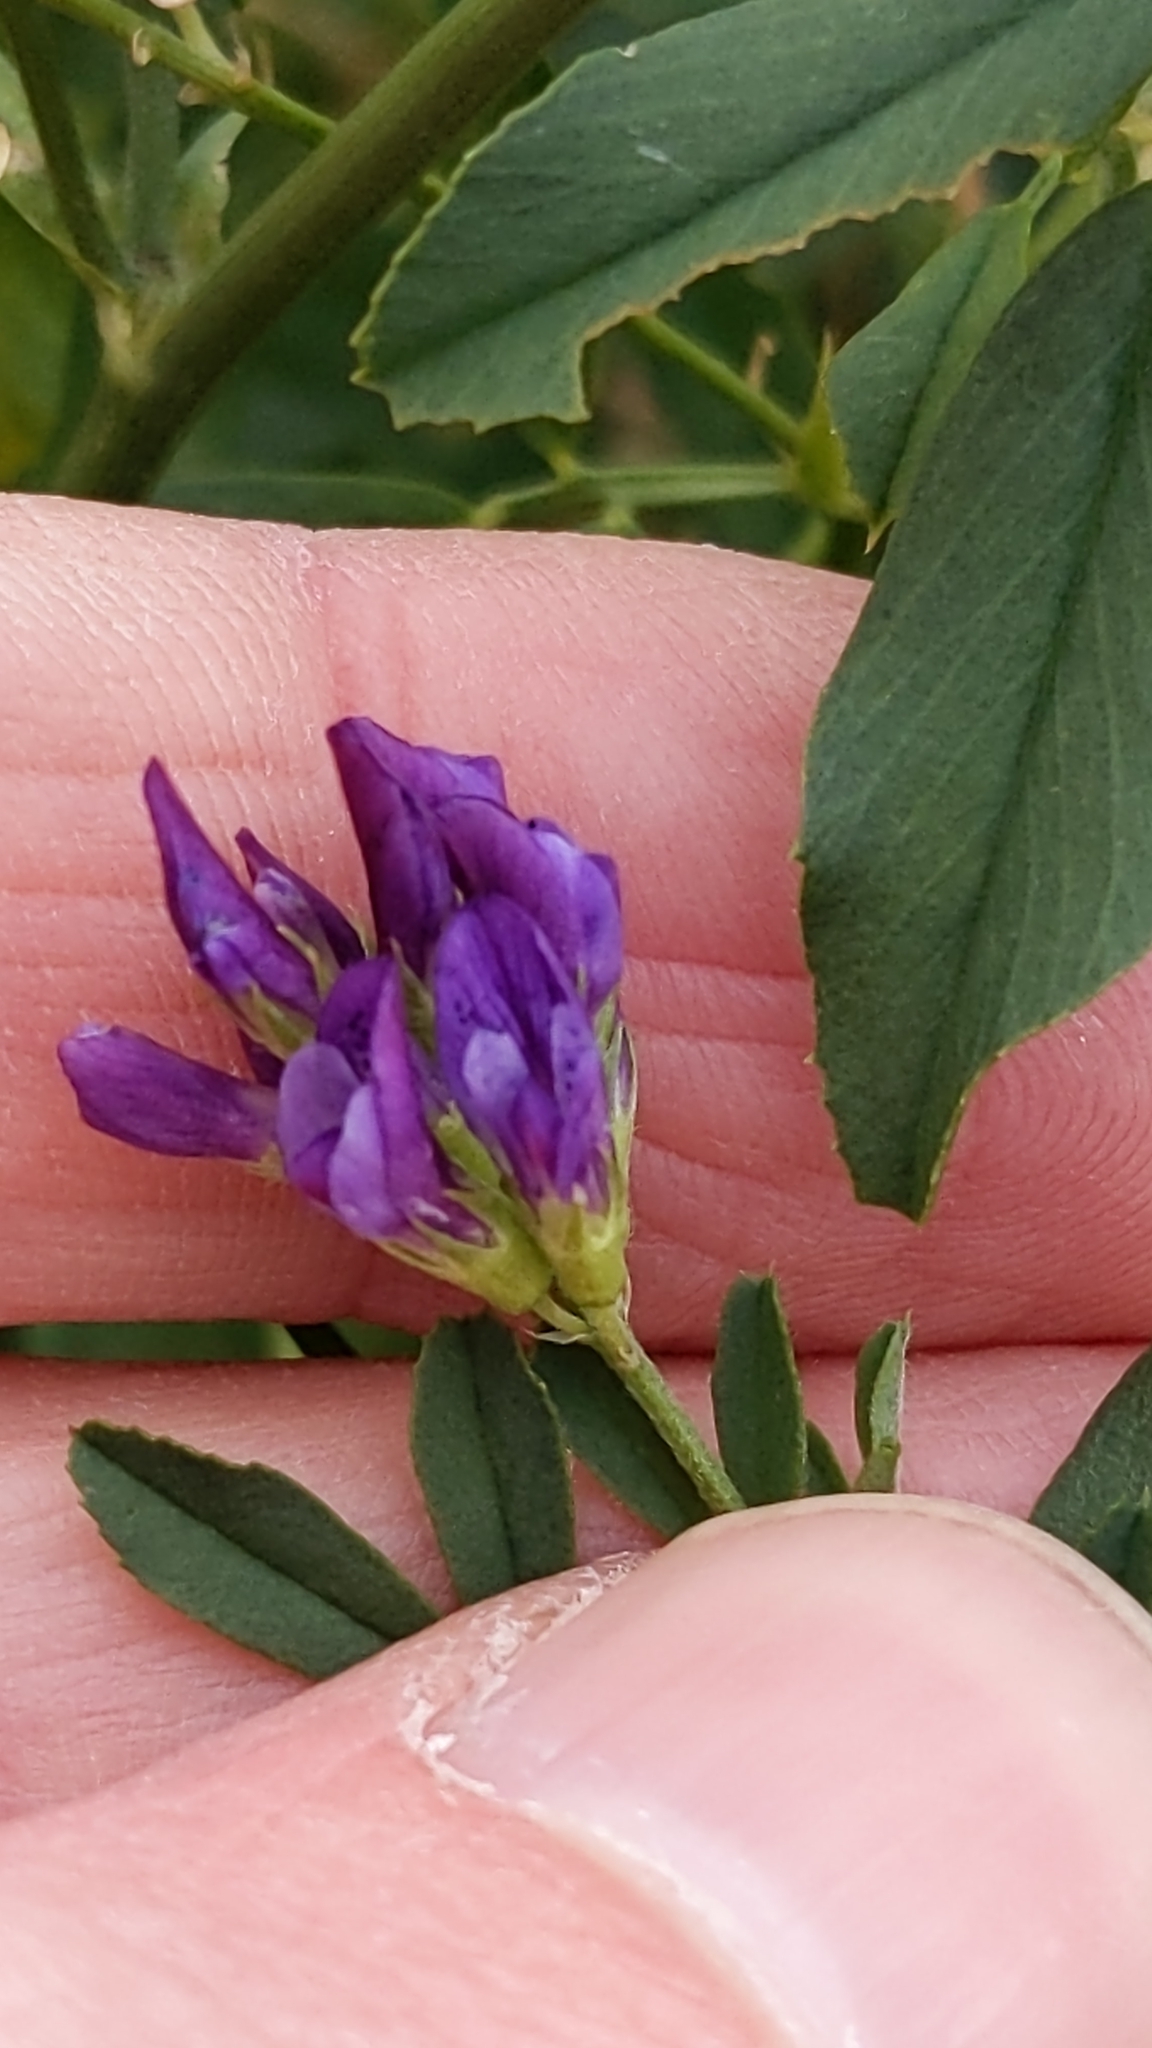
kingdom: Plantae
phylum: Tracheophyta
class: Magnoliopsida
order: Fabales
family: Fabaceae
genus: Medicago
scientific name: Medicago sativa
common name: Alfalfa
